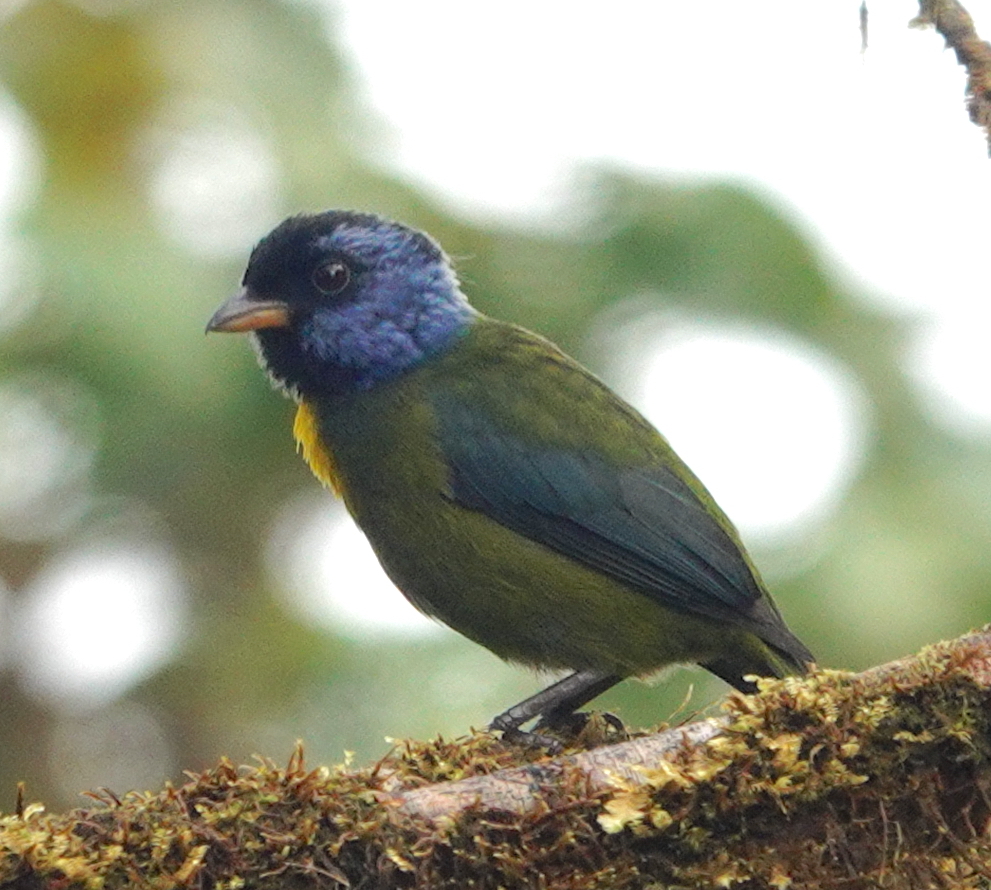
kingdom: Animalia
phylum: Chordata
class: Aves
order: Passeriformes
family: Thraupidae
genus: Bangsia
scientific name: Bangsia edwardsi
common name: Moss-backed tanager
